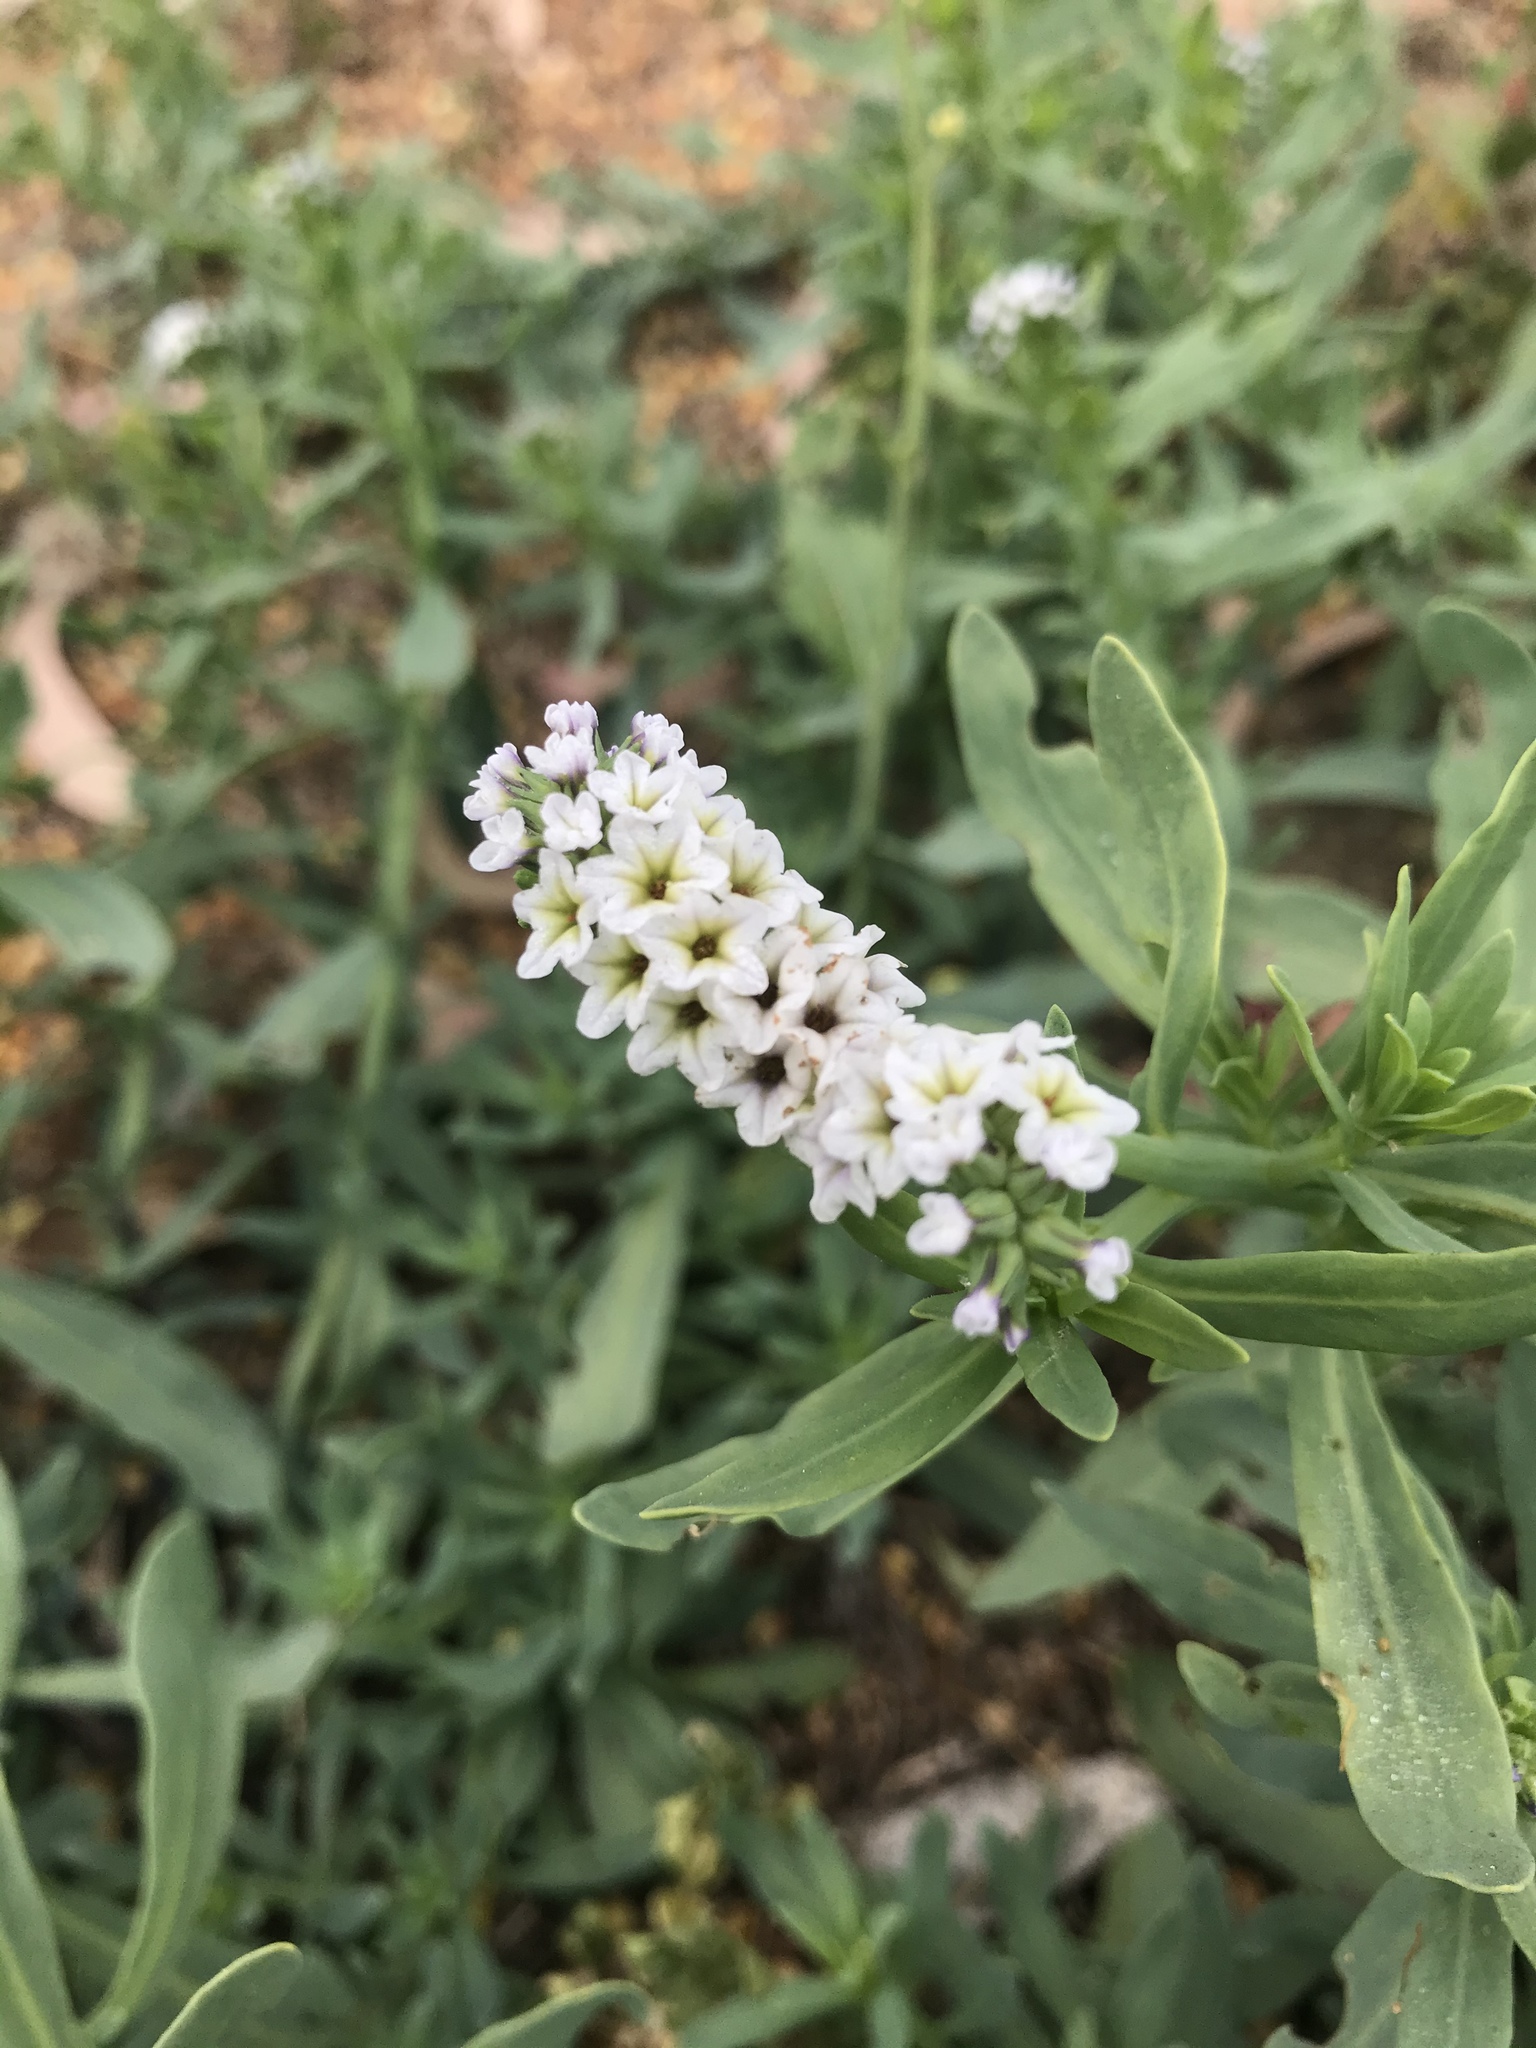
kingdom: Plantae
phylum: Tracheophyta
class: Magnoliopsida
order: Boraginales
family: Heliotropiaceae
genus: Heliotropium
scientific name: Heliotropium curassavicum
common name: Seaside heliotrope
